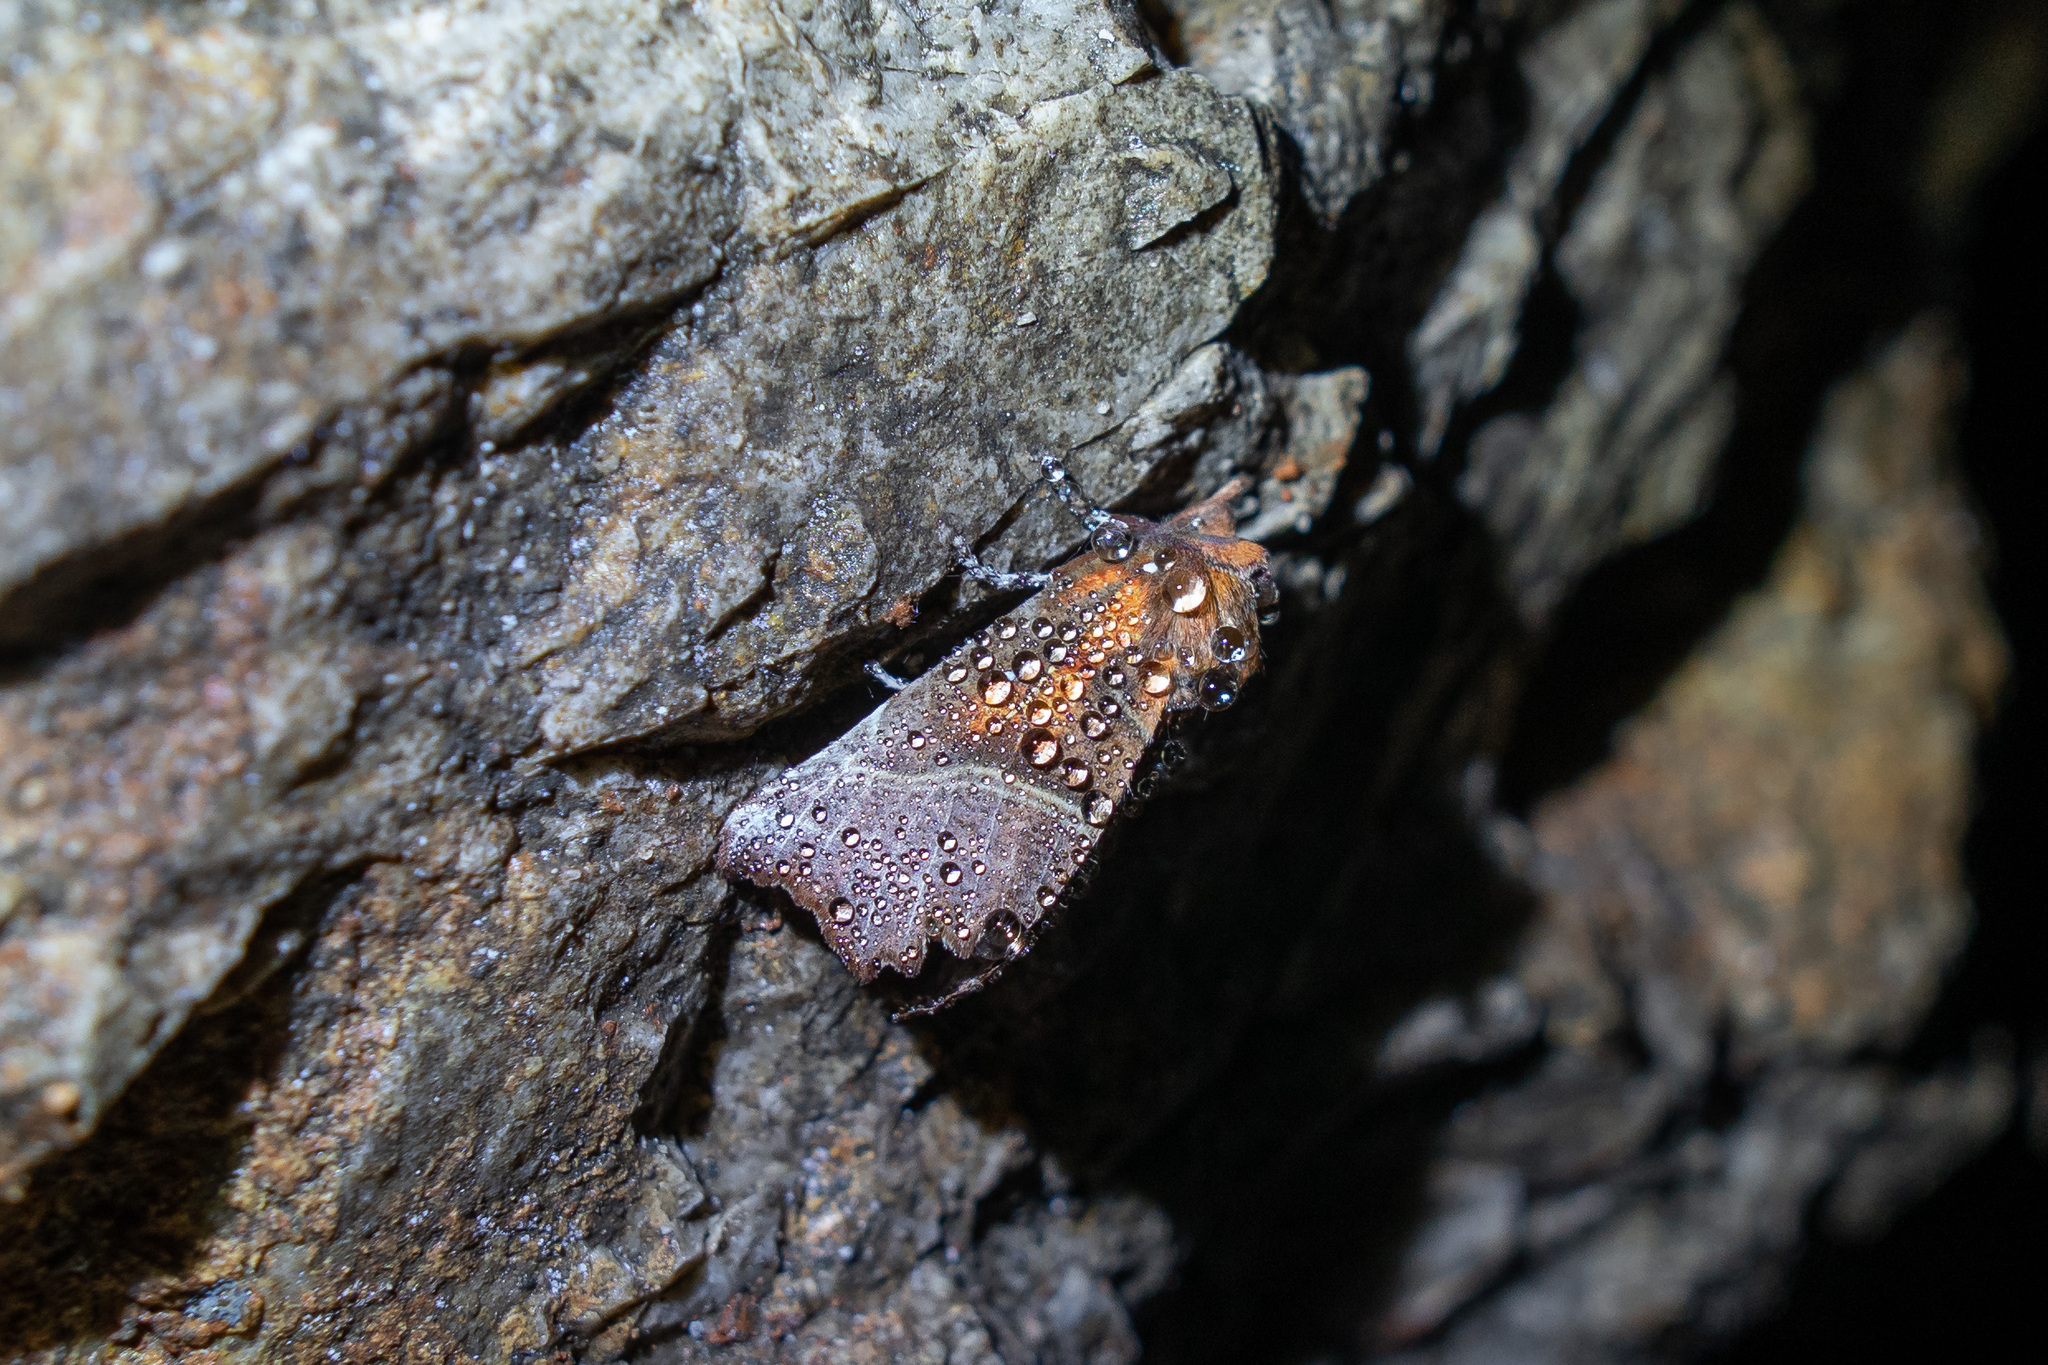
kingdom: Animalia
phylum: Arthropoda
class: Insecta
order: Lepidoptera
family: Erebidae
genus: Scoliopteryx
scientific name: Scoliopteryx libatrix
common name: Herald
